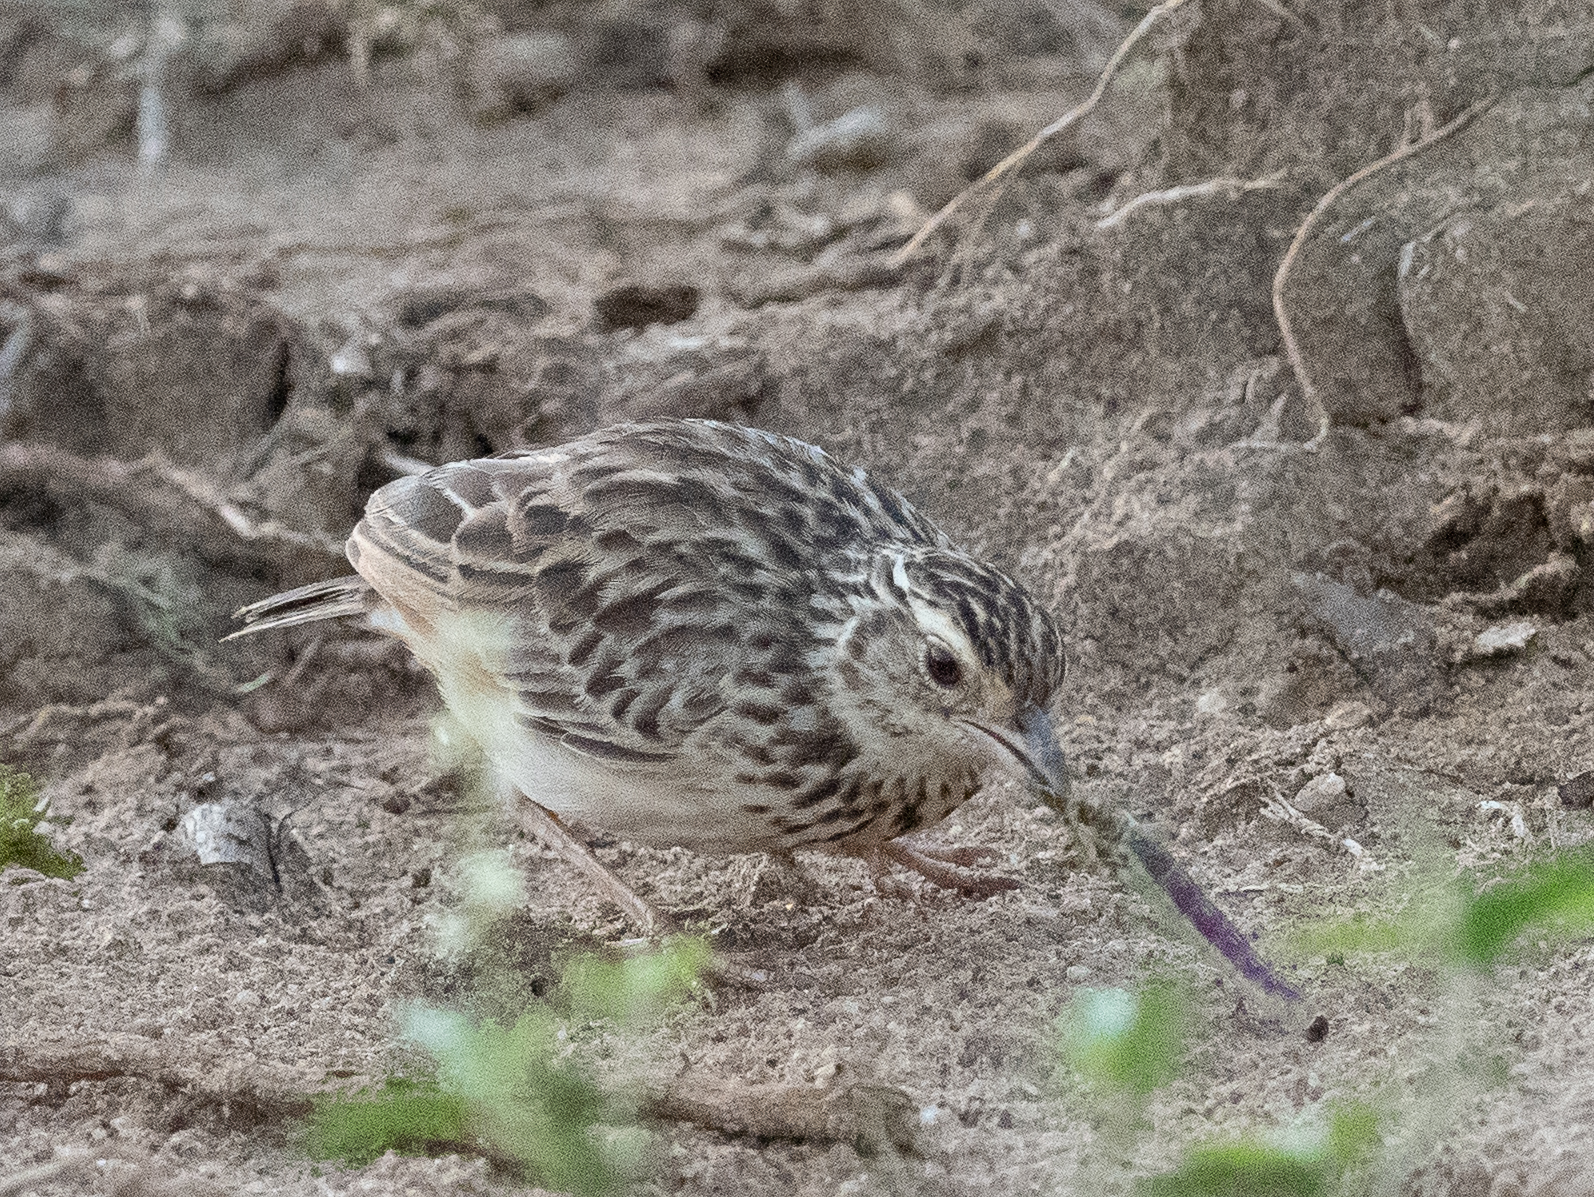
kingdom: Animalia
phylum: Chordata
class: Aves
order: Passeriformes
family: Alaudidae
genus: Mirafra
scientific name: Mirafra affinis
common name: Jerdon's bushlark
